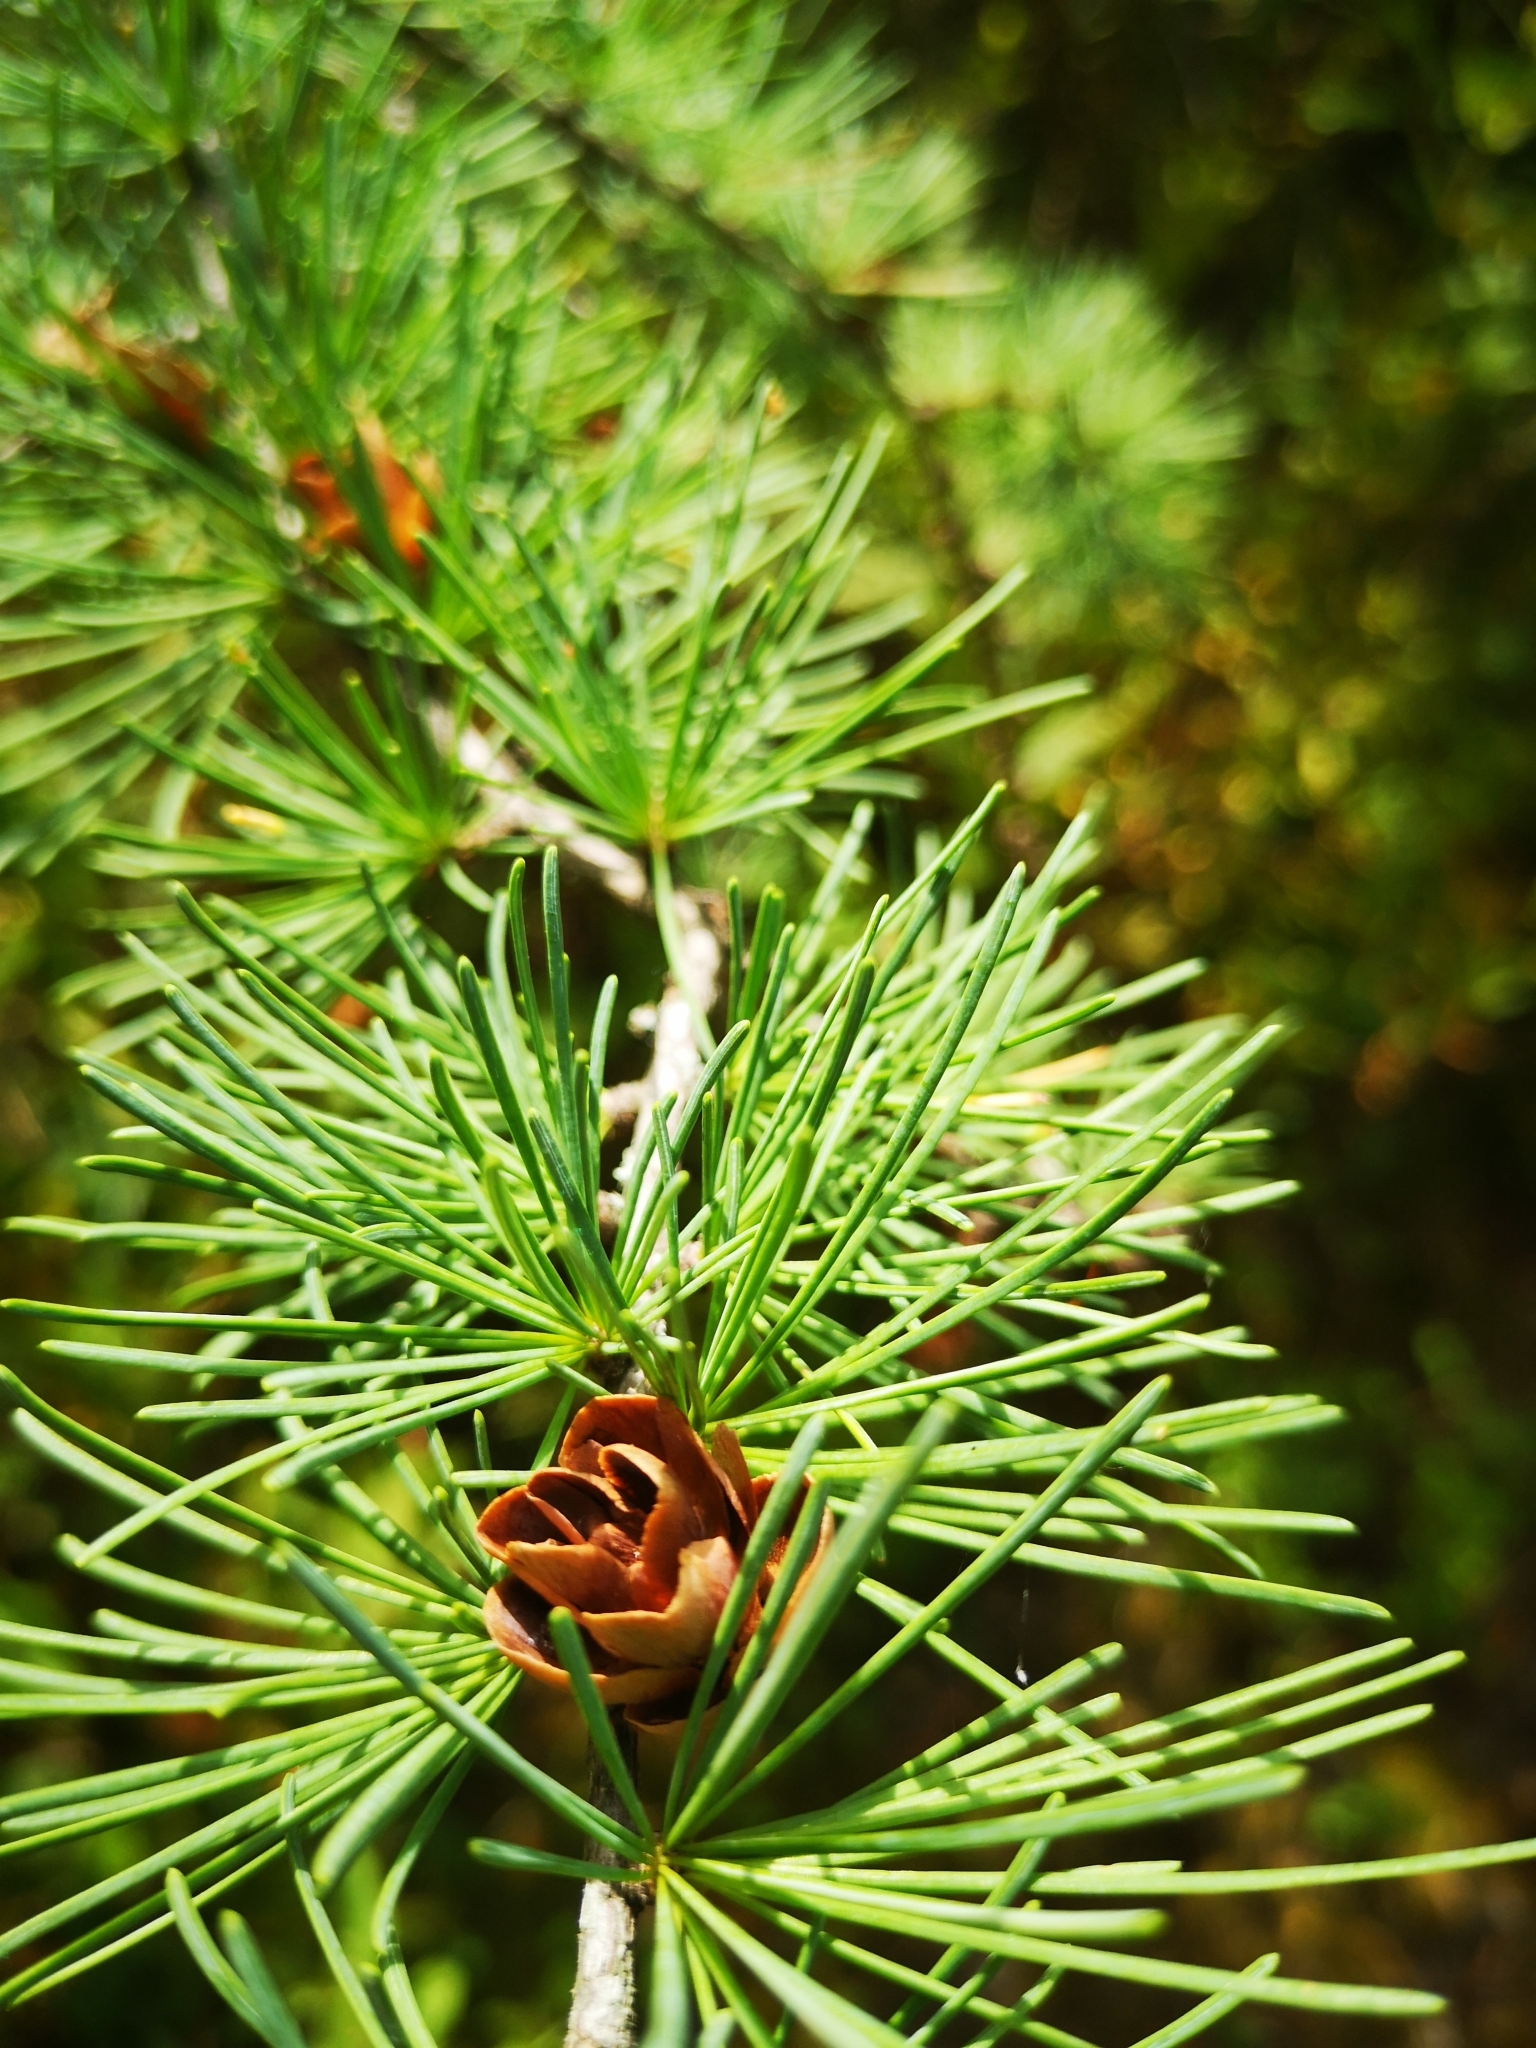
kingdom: Plantae
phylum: Tracheophyta
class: Pinopsida
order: Pinales
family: Pinaceae
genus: Larix
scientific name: Larix laricina
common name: American larch
